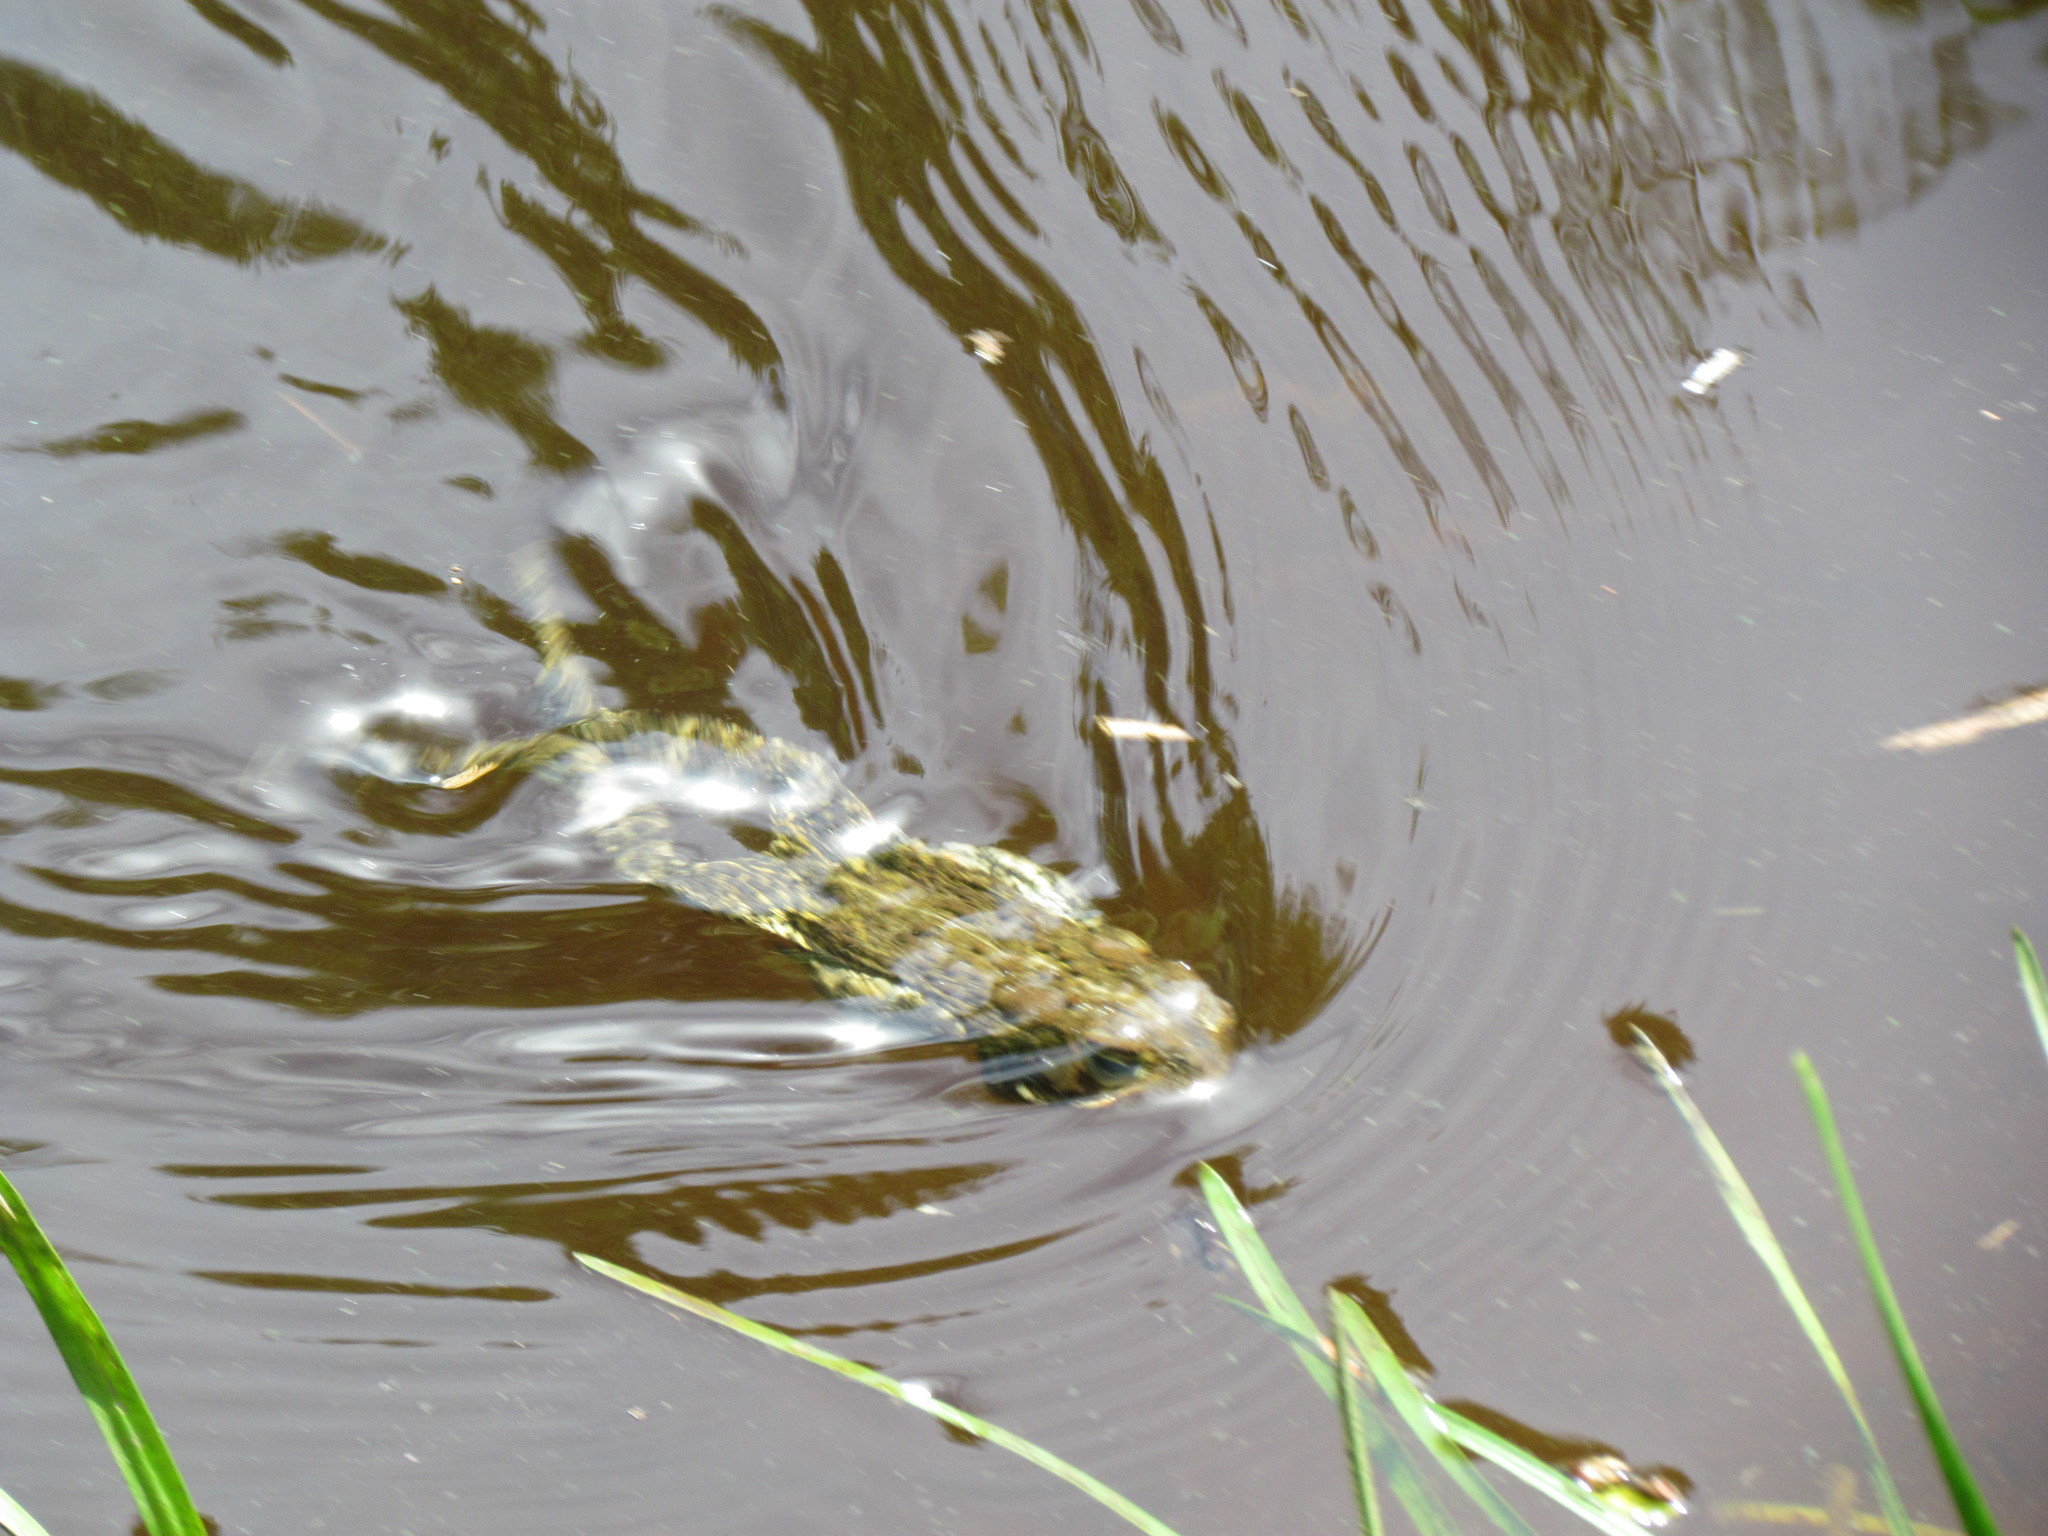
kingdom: Animalia
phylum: Chordata
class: Amphibia
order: Anura
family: Bufonidae
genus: Anaxyrus
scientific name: Anaxyrus americanus
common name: American toad
